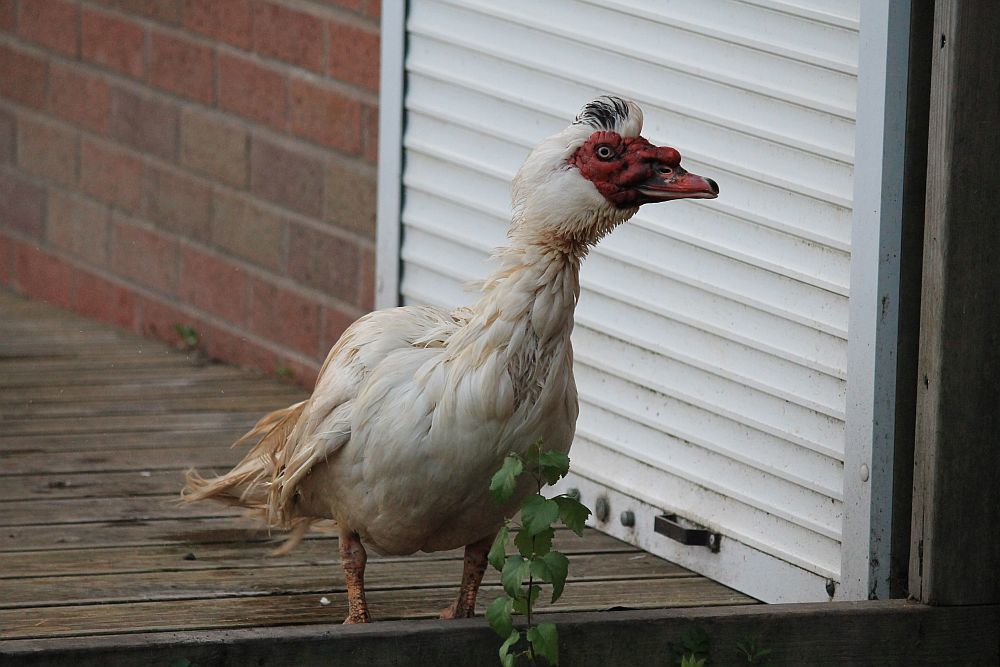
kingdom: Animalia
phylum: Chordata
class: Aves
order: Anseriformes
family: Anatidae
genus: Cairina
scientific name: Cairina moschata
